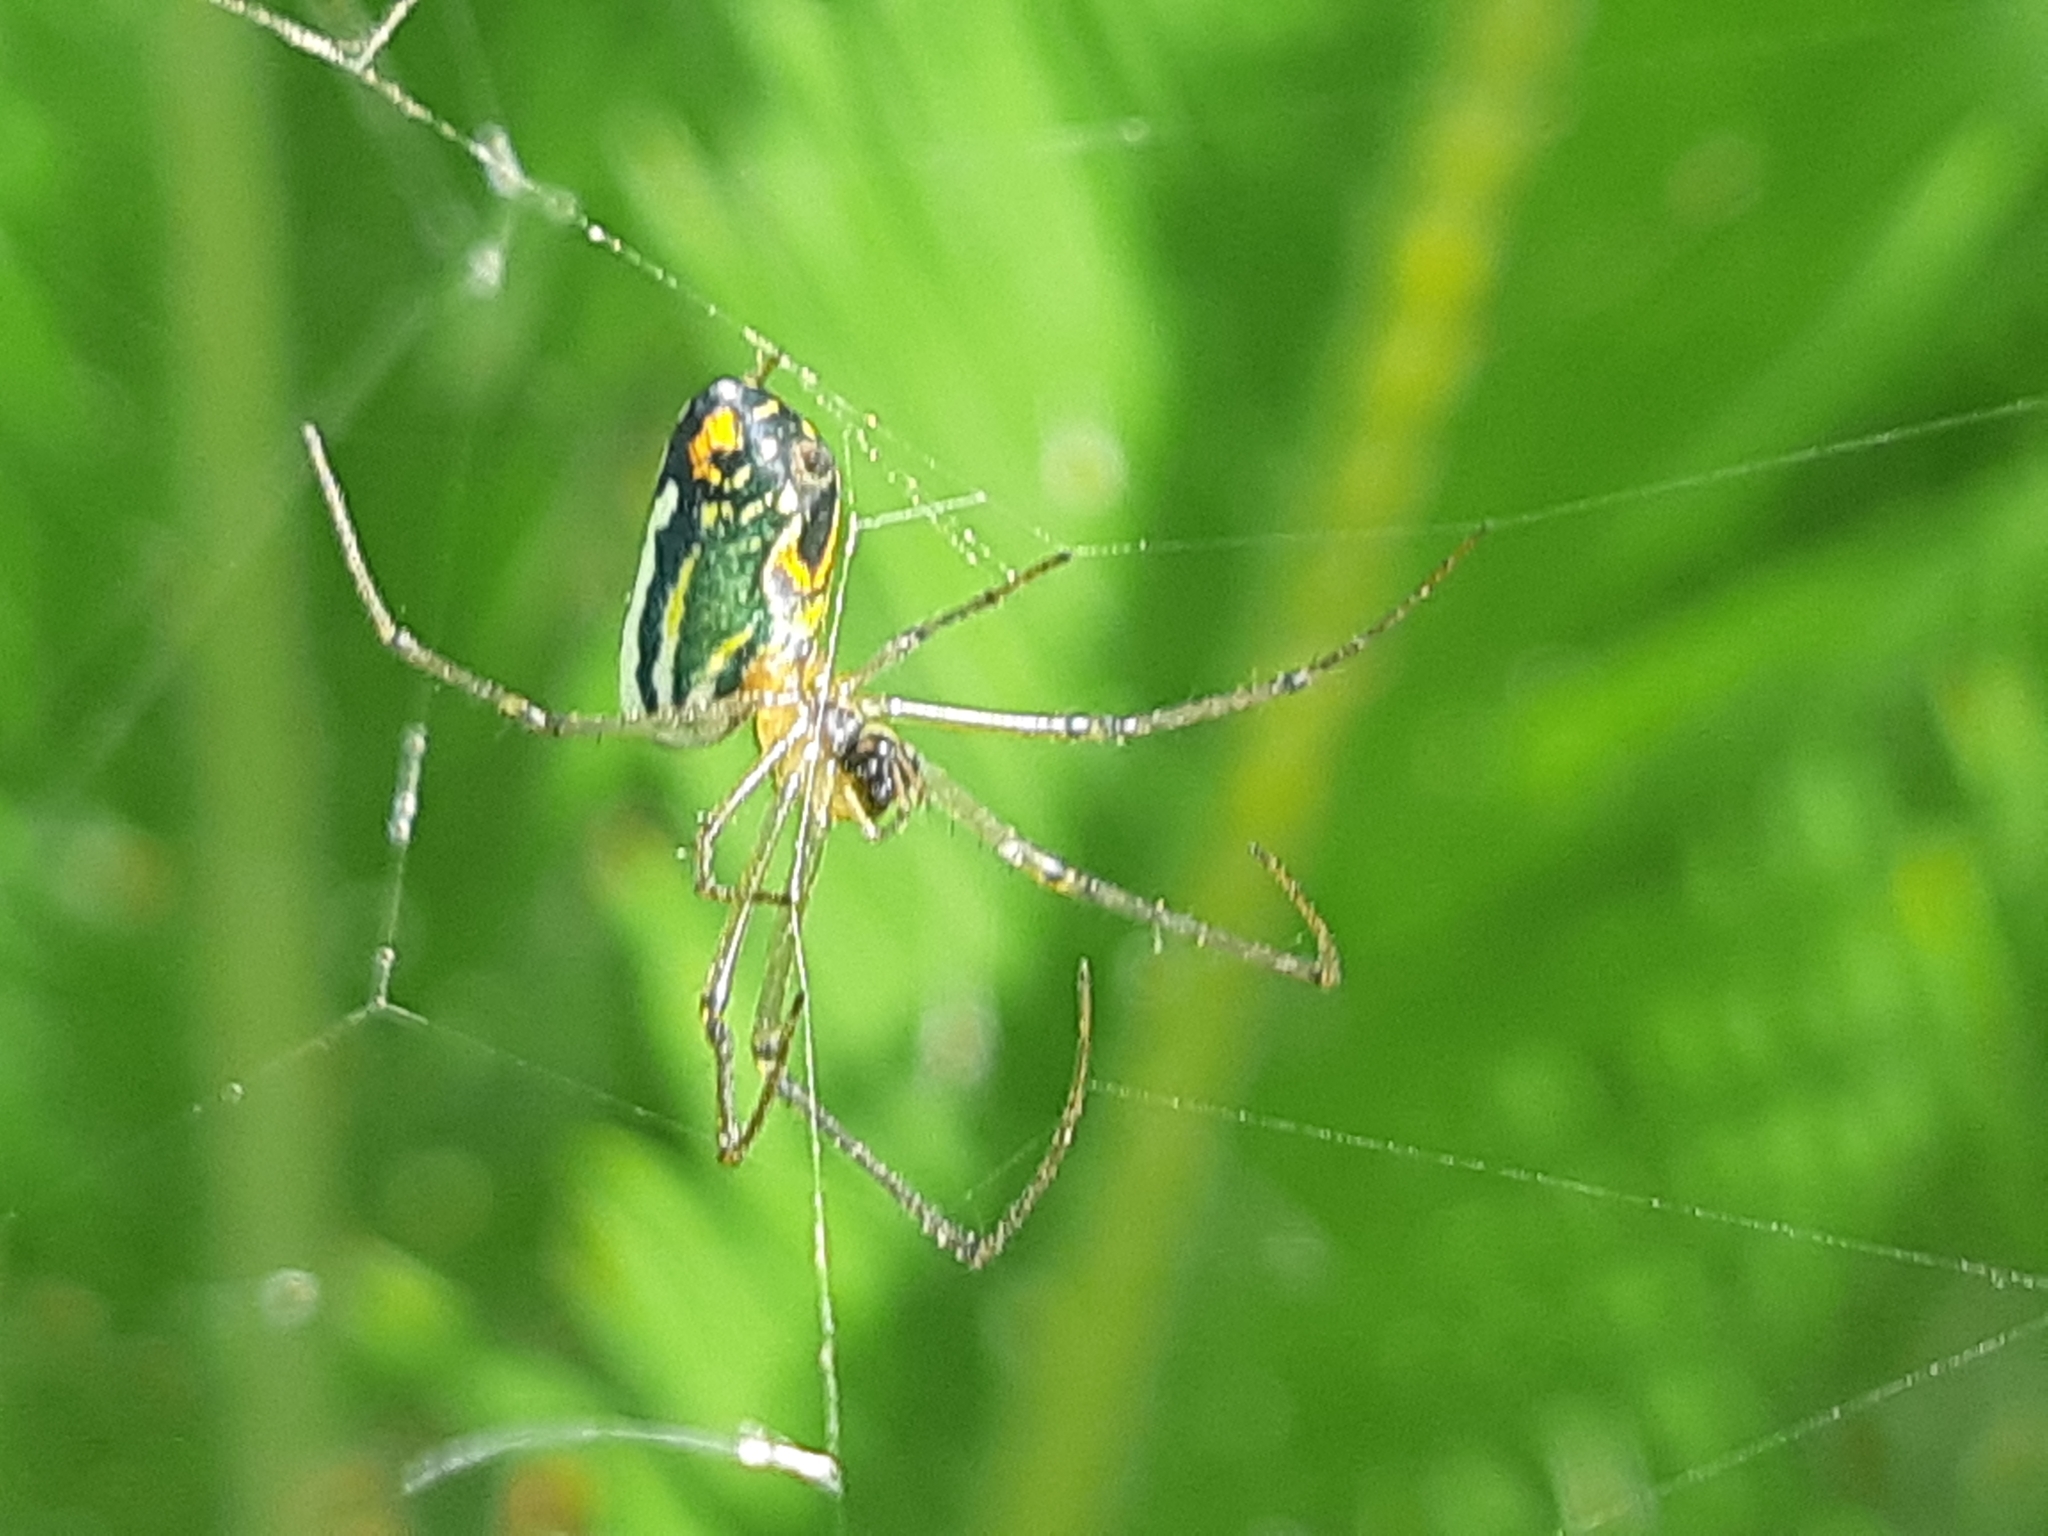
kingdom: Animalia
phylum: Arthropoda
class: Arachnida
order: Araneae
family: Tetragnathidae
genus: Leucauge
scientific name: Leucauge argyrobapta
